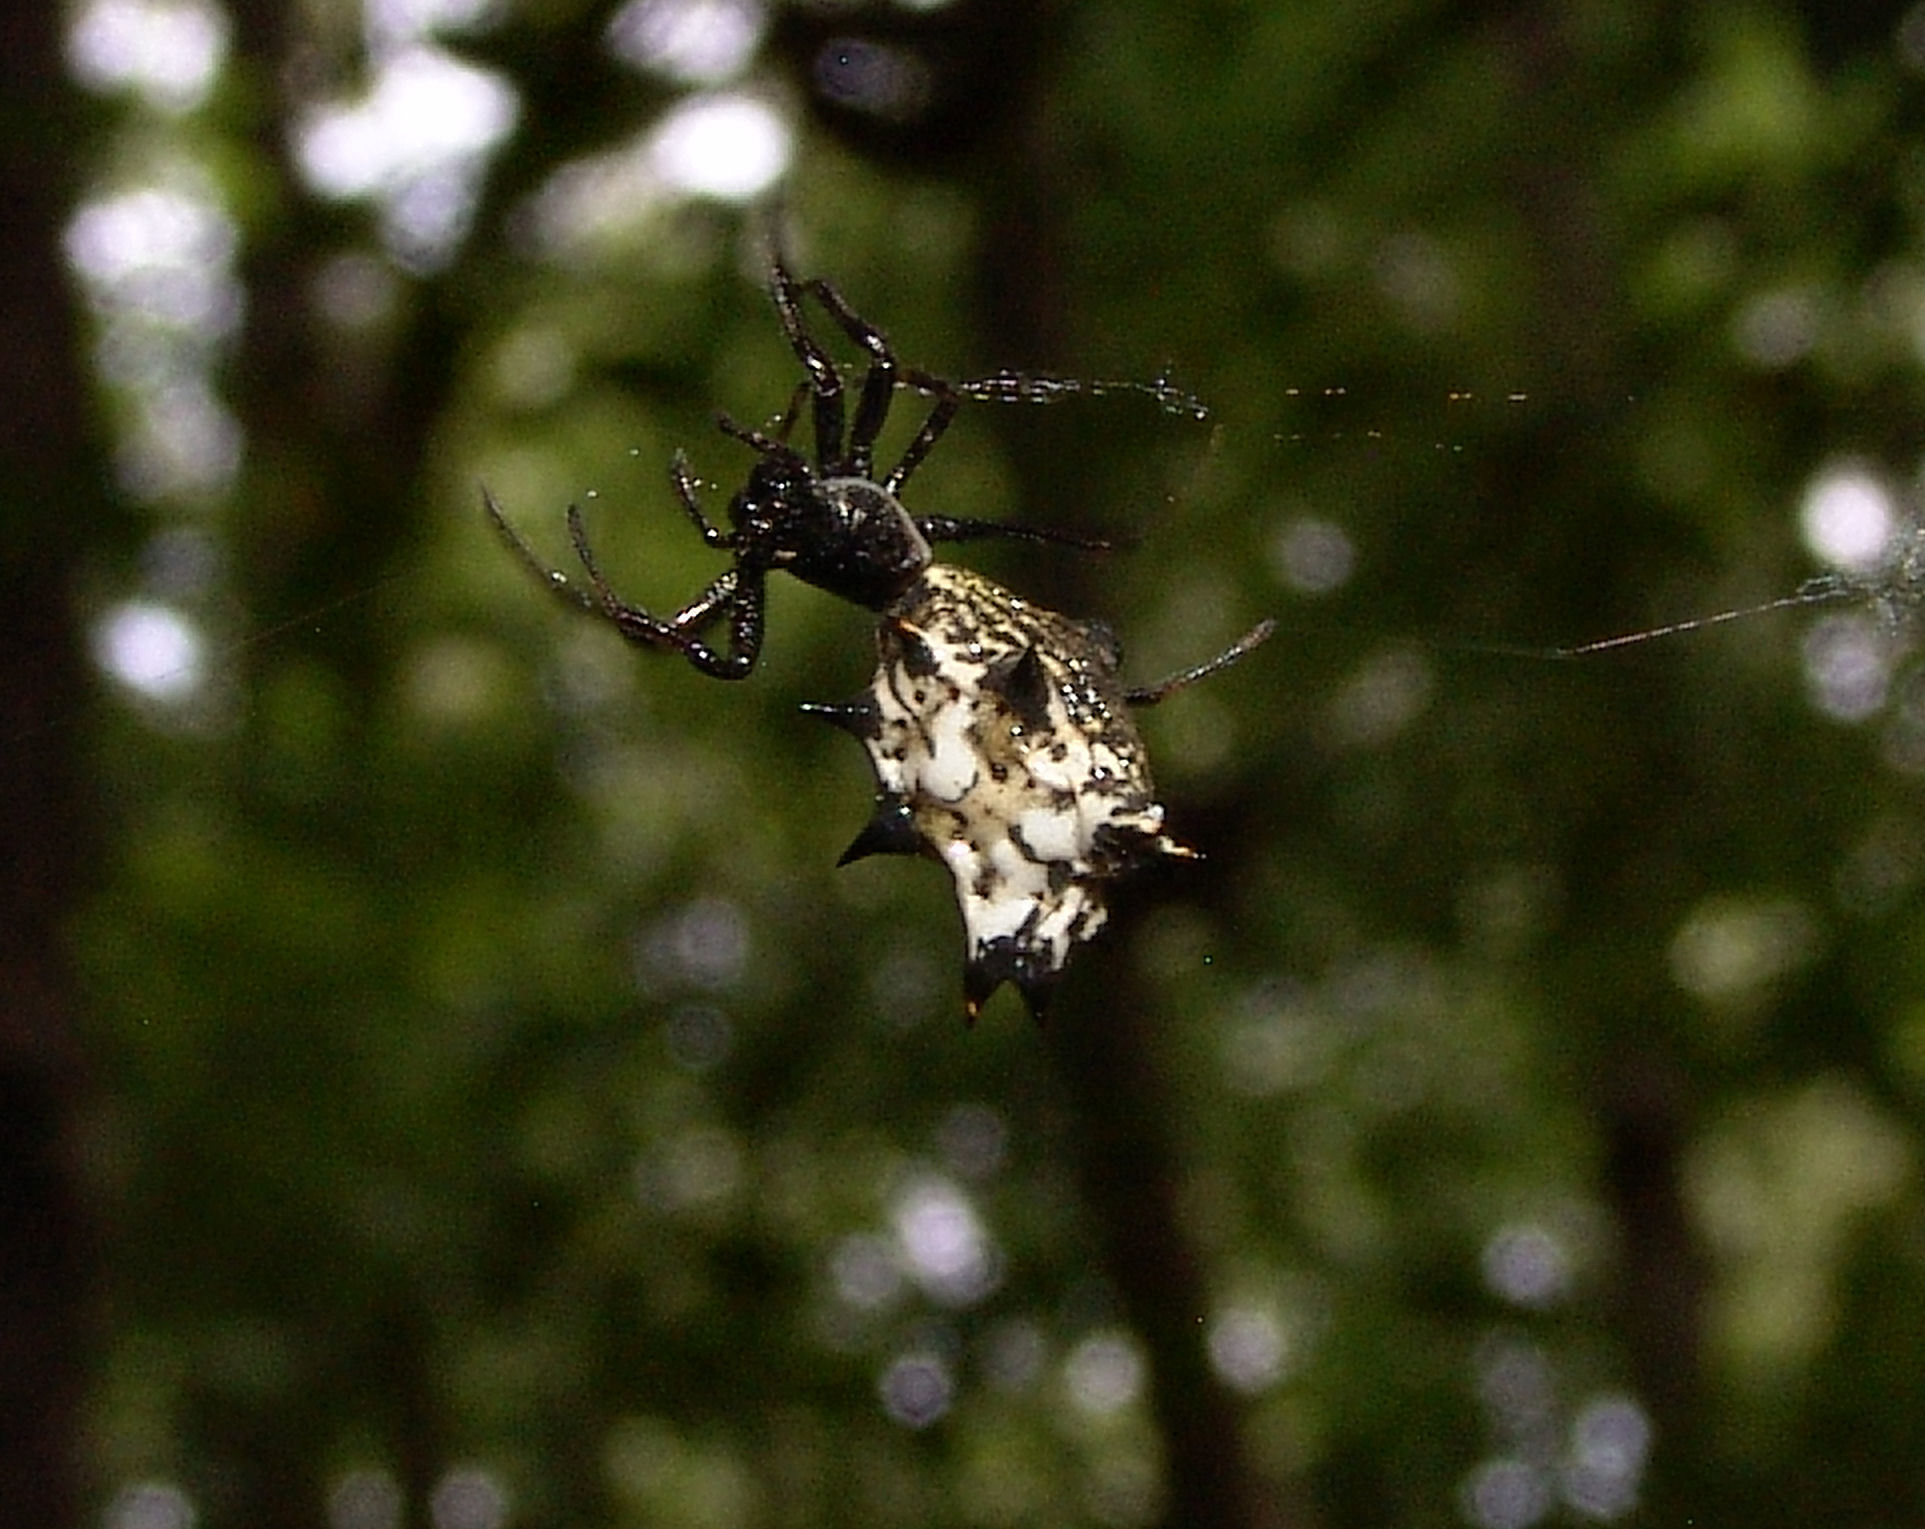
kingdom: Animalia
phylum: Arthropoda
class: Arachnida
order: Araneae
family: Araneidae
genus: Micrathena
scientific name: Micrathena gracilis
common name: Orb weavers
